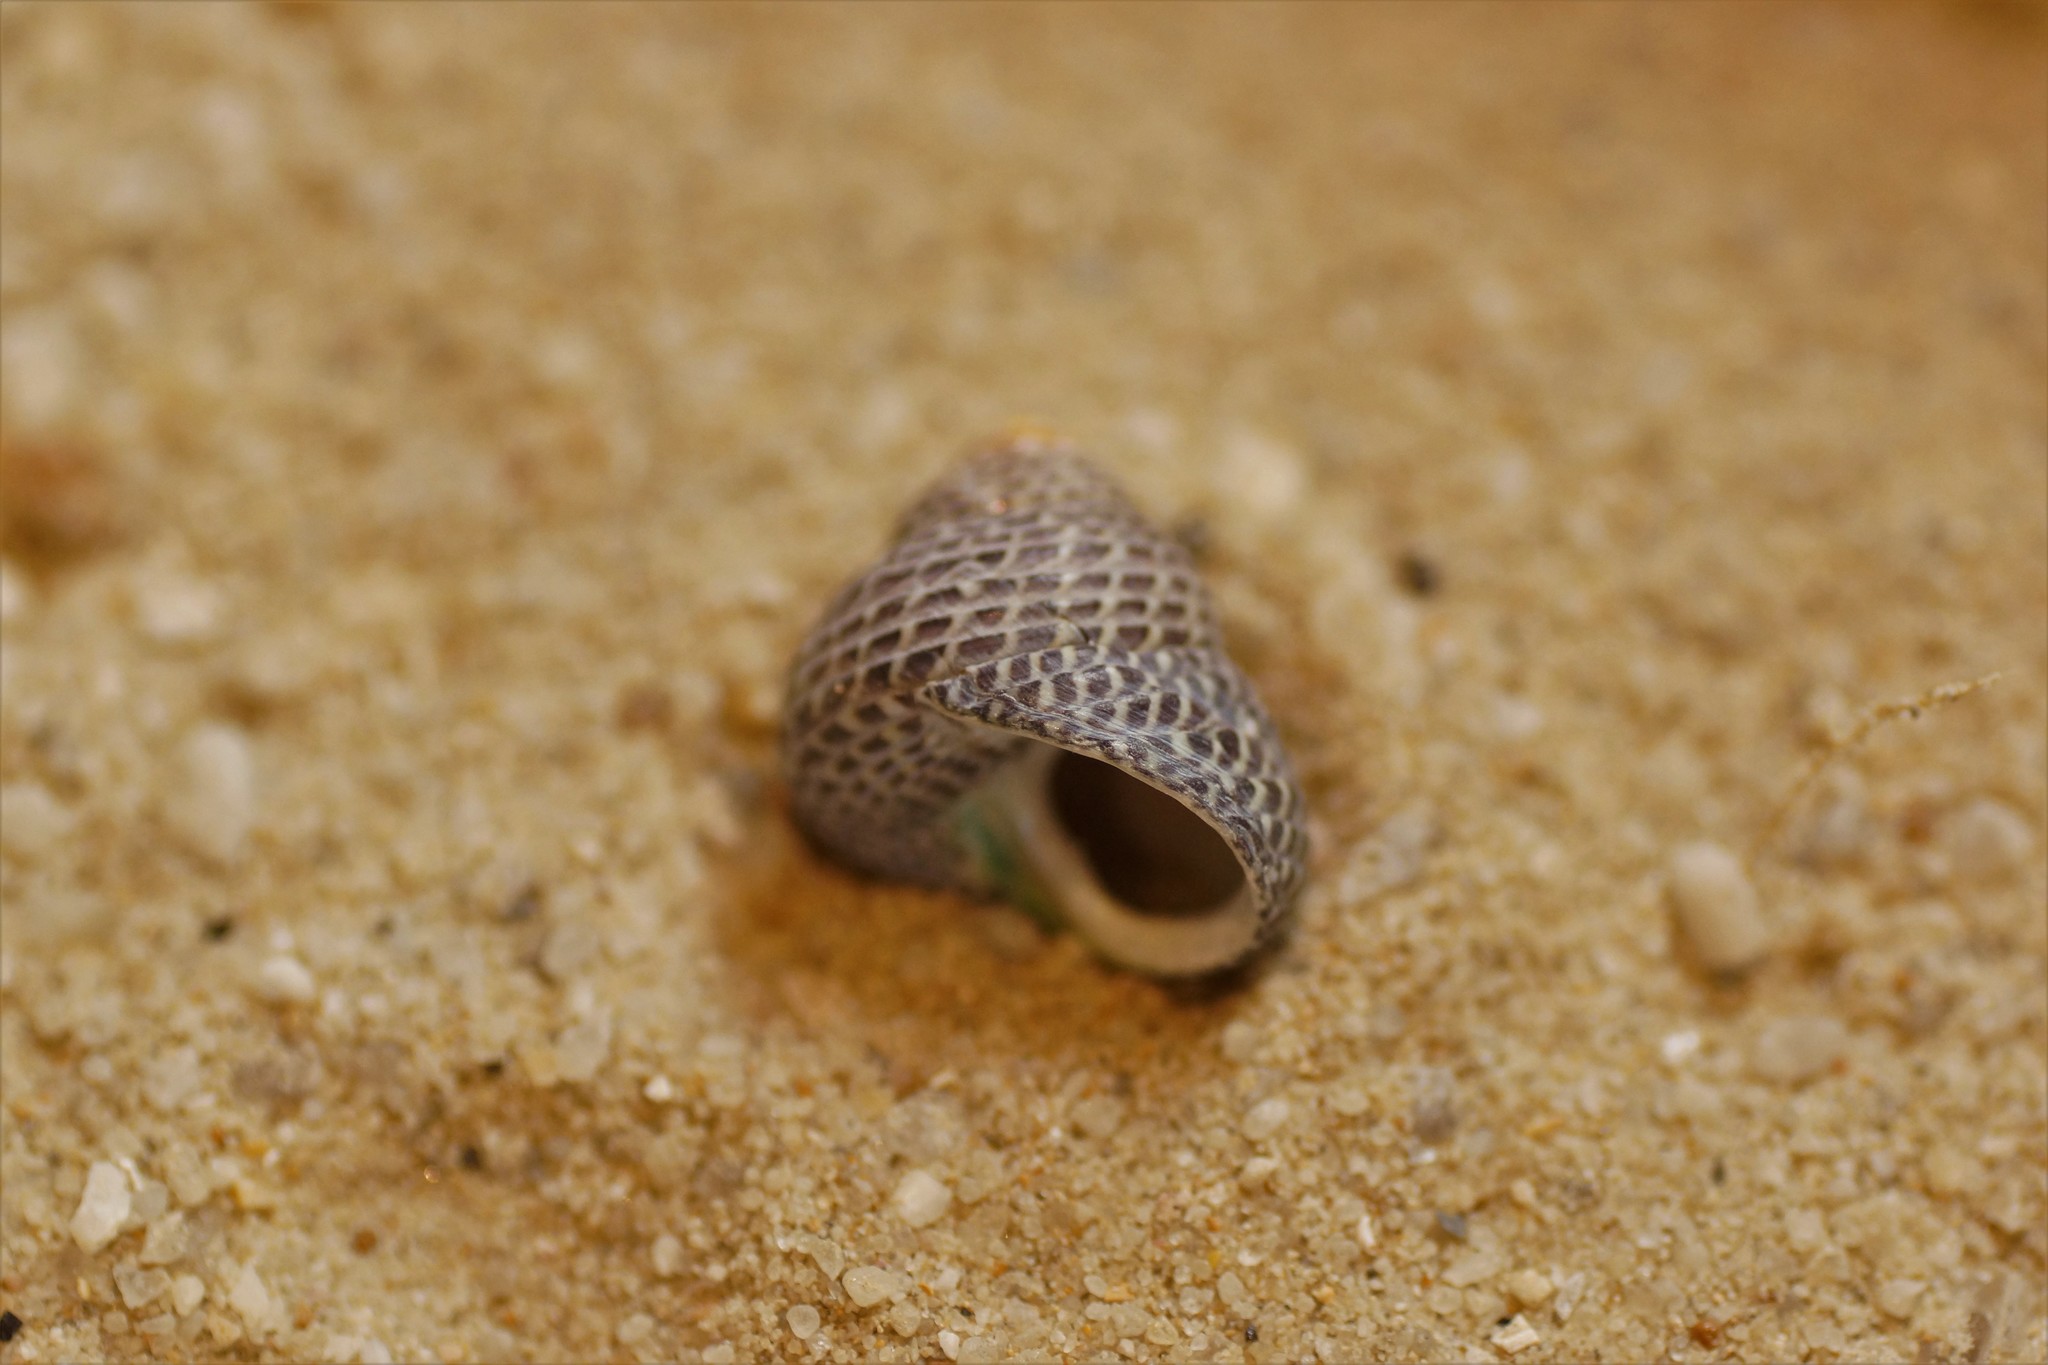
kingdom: Animalia
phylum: Mollusca
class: Gastropoda
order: Trochida
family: Trochidae
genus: Chlorodiloma
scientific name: Chlorodiloma adelaidae
